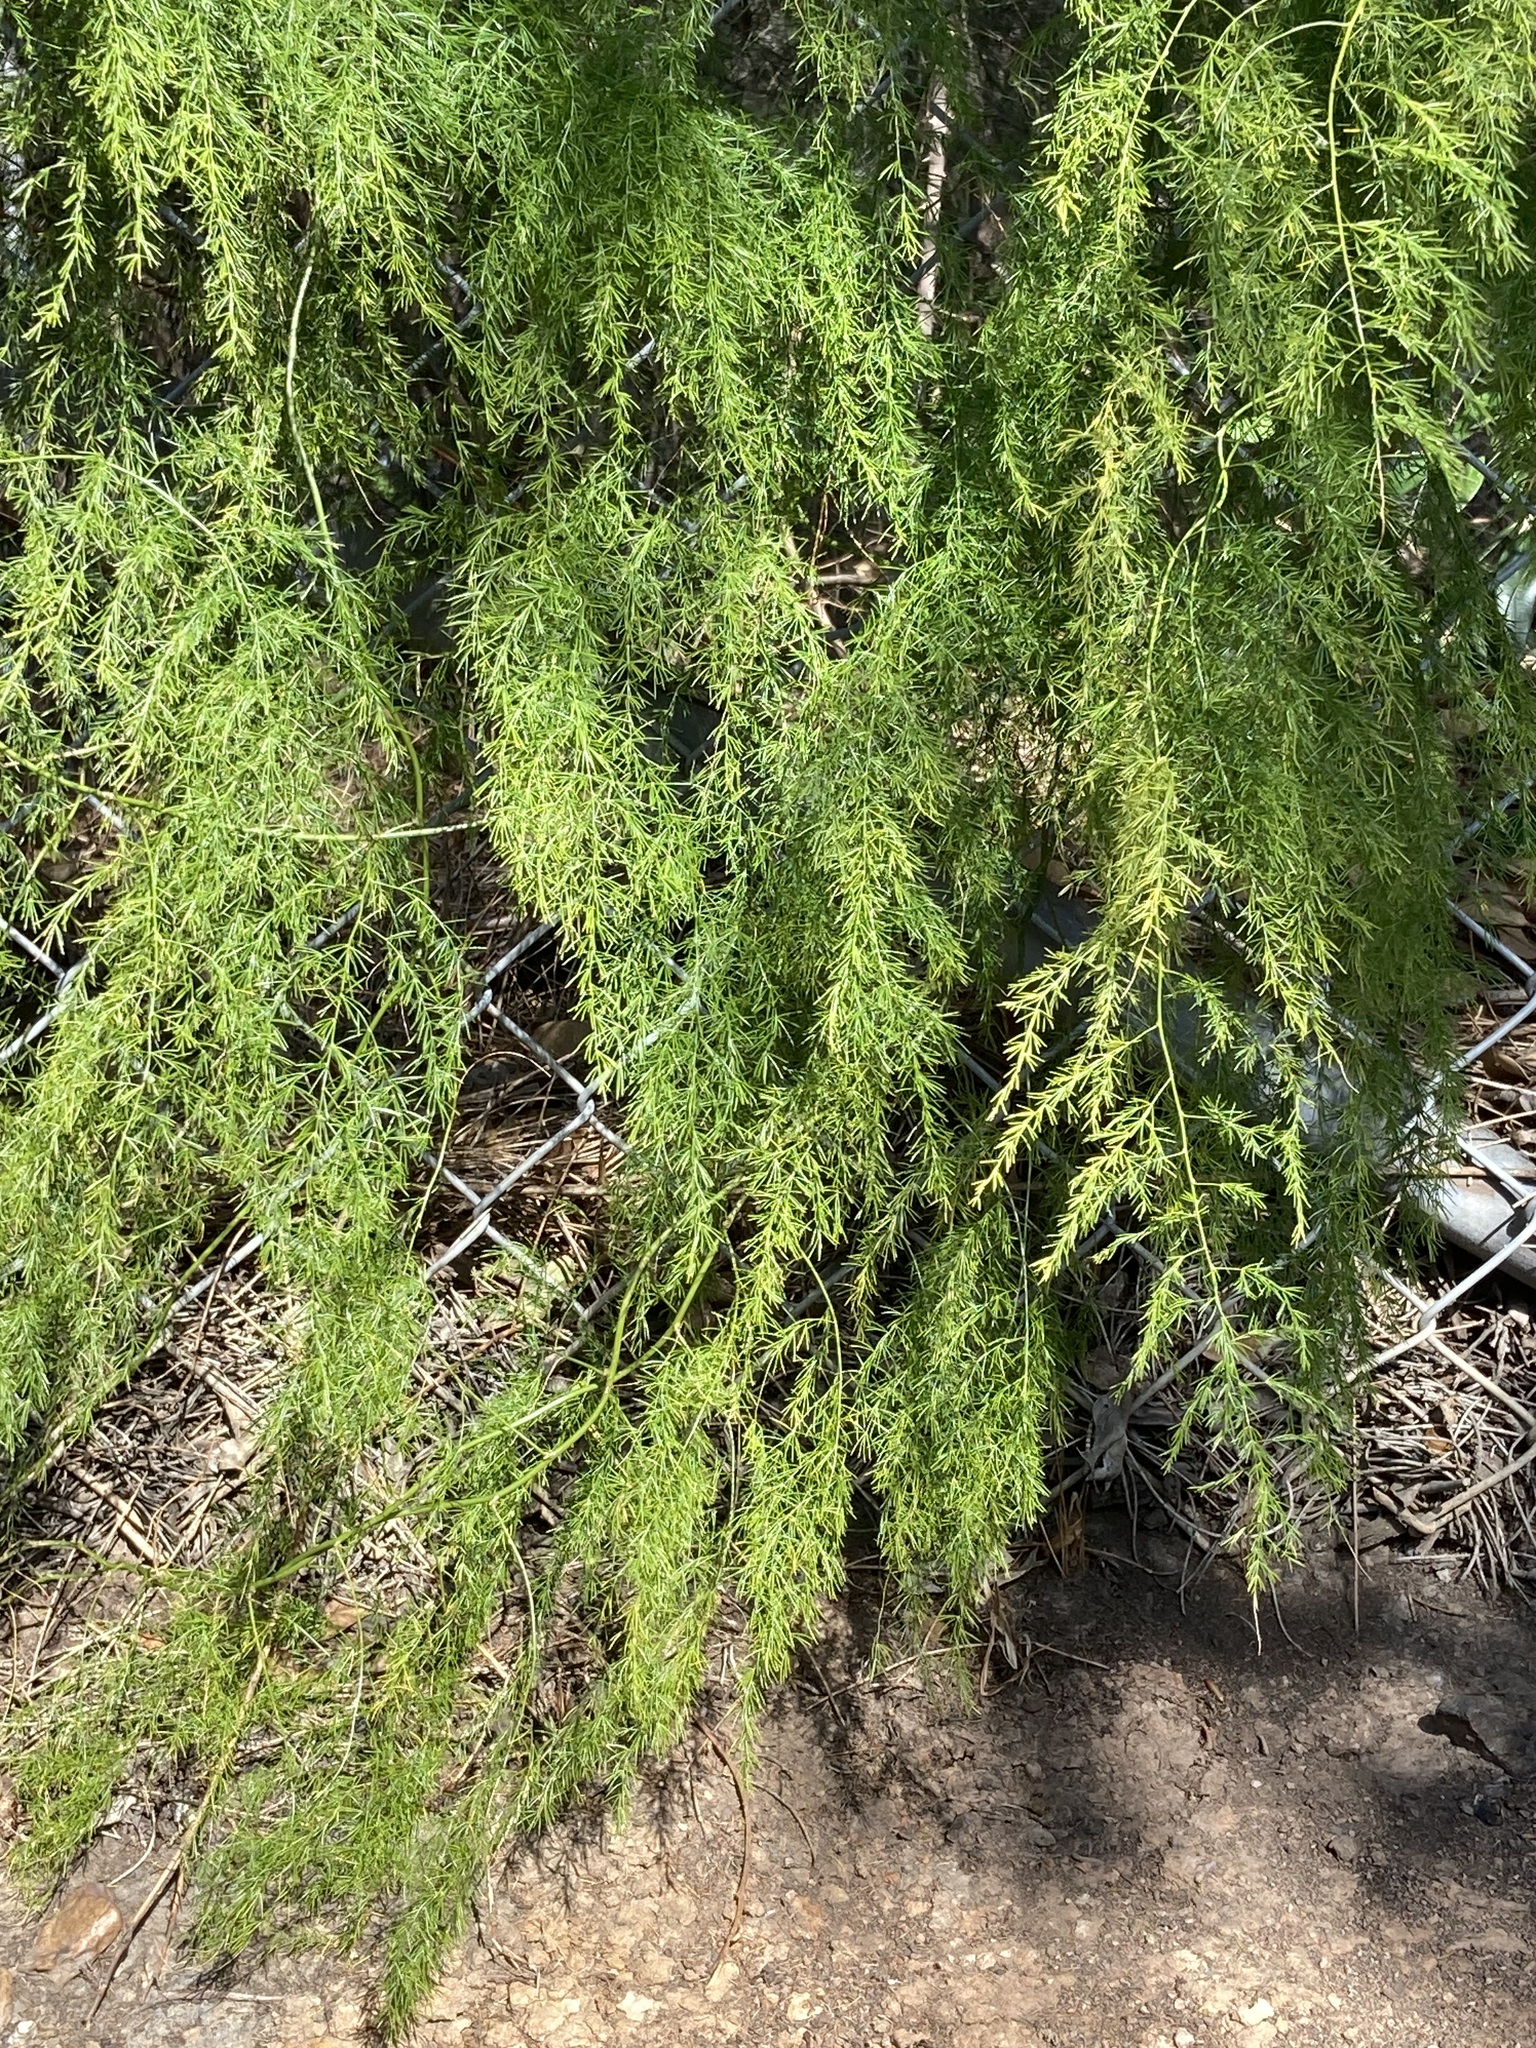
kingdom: Plantae
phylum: Tracheophyta
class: Liliopsida
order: Asparagales
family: Asparagaceae
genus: Asparagus
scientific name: Asparagus setaceus
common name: Common asparagus fern
